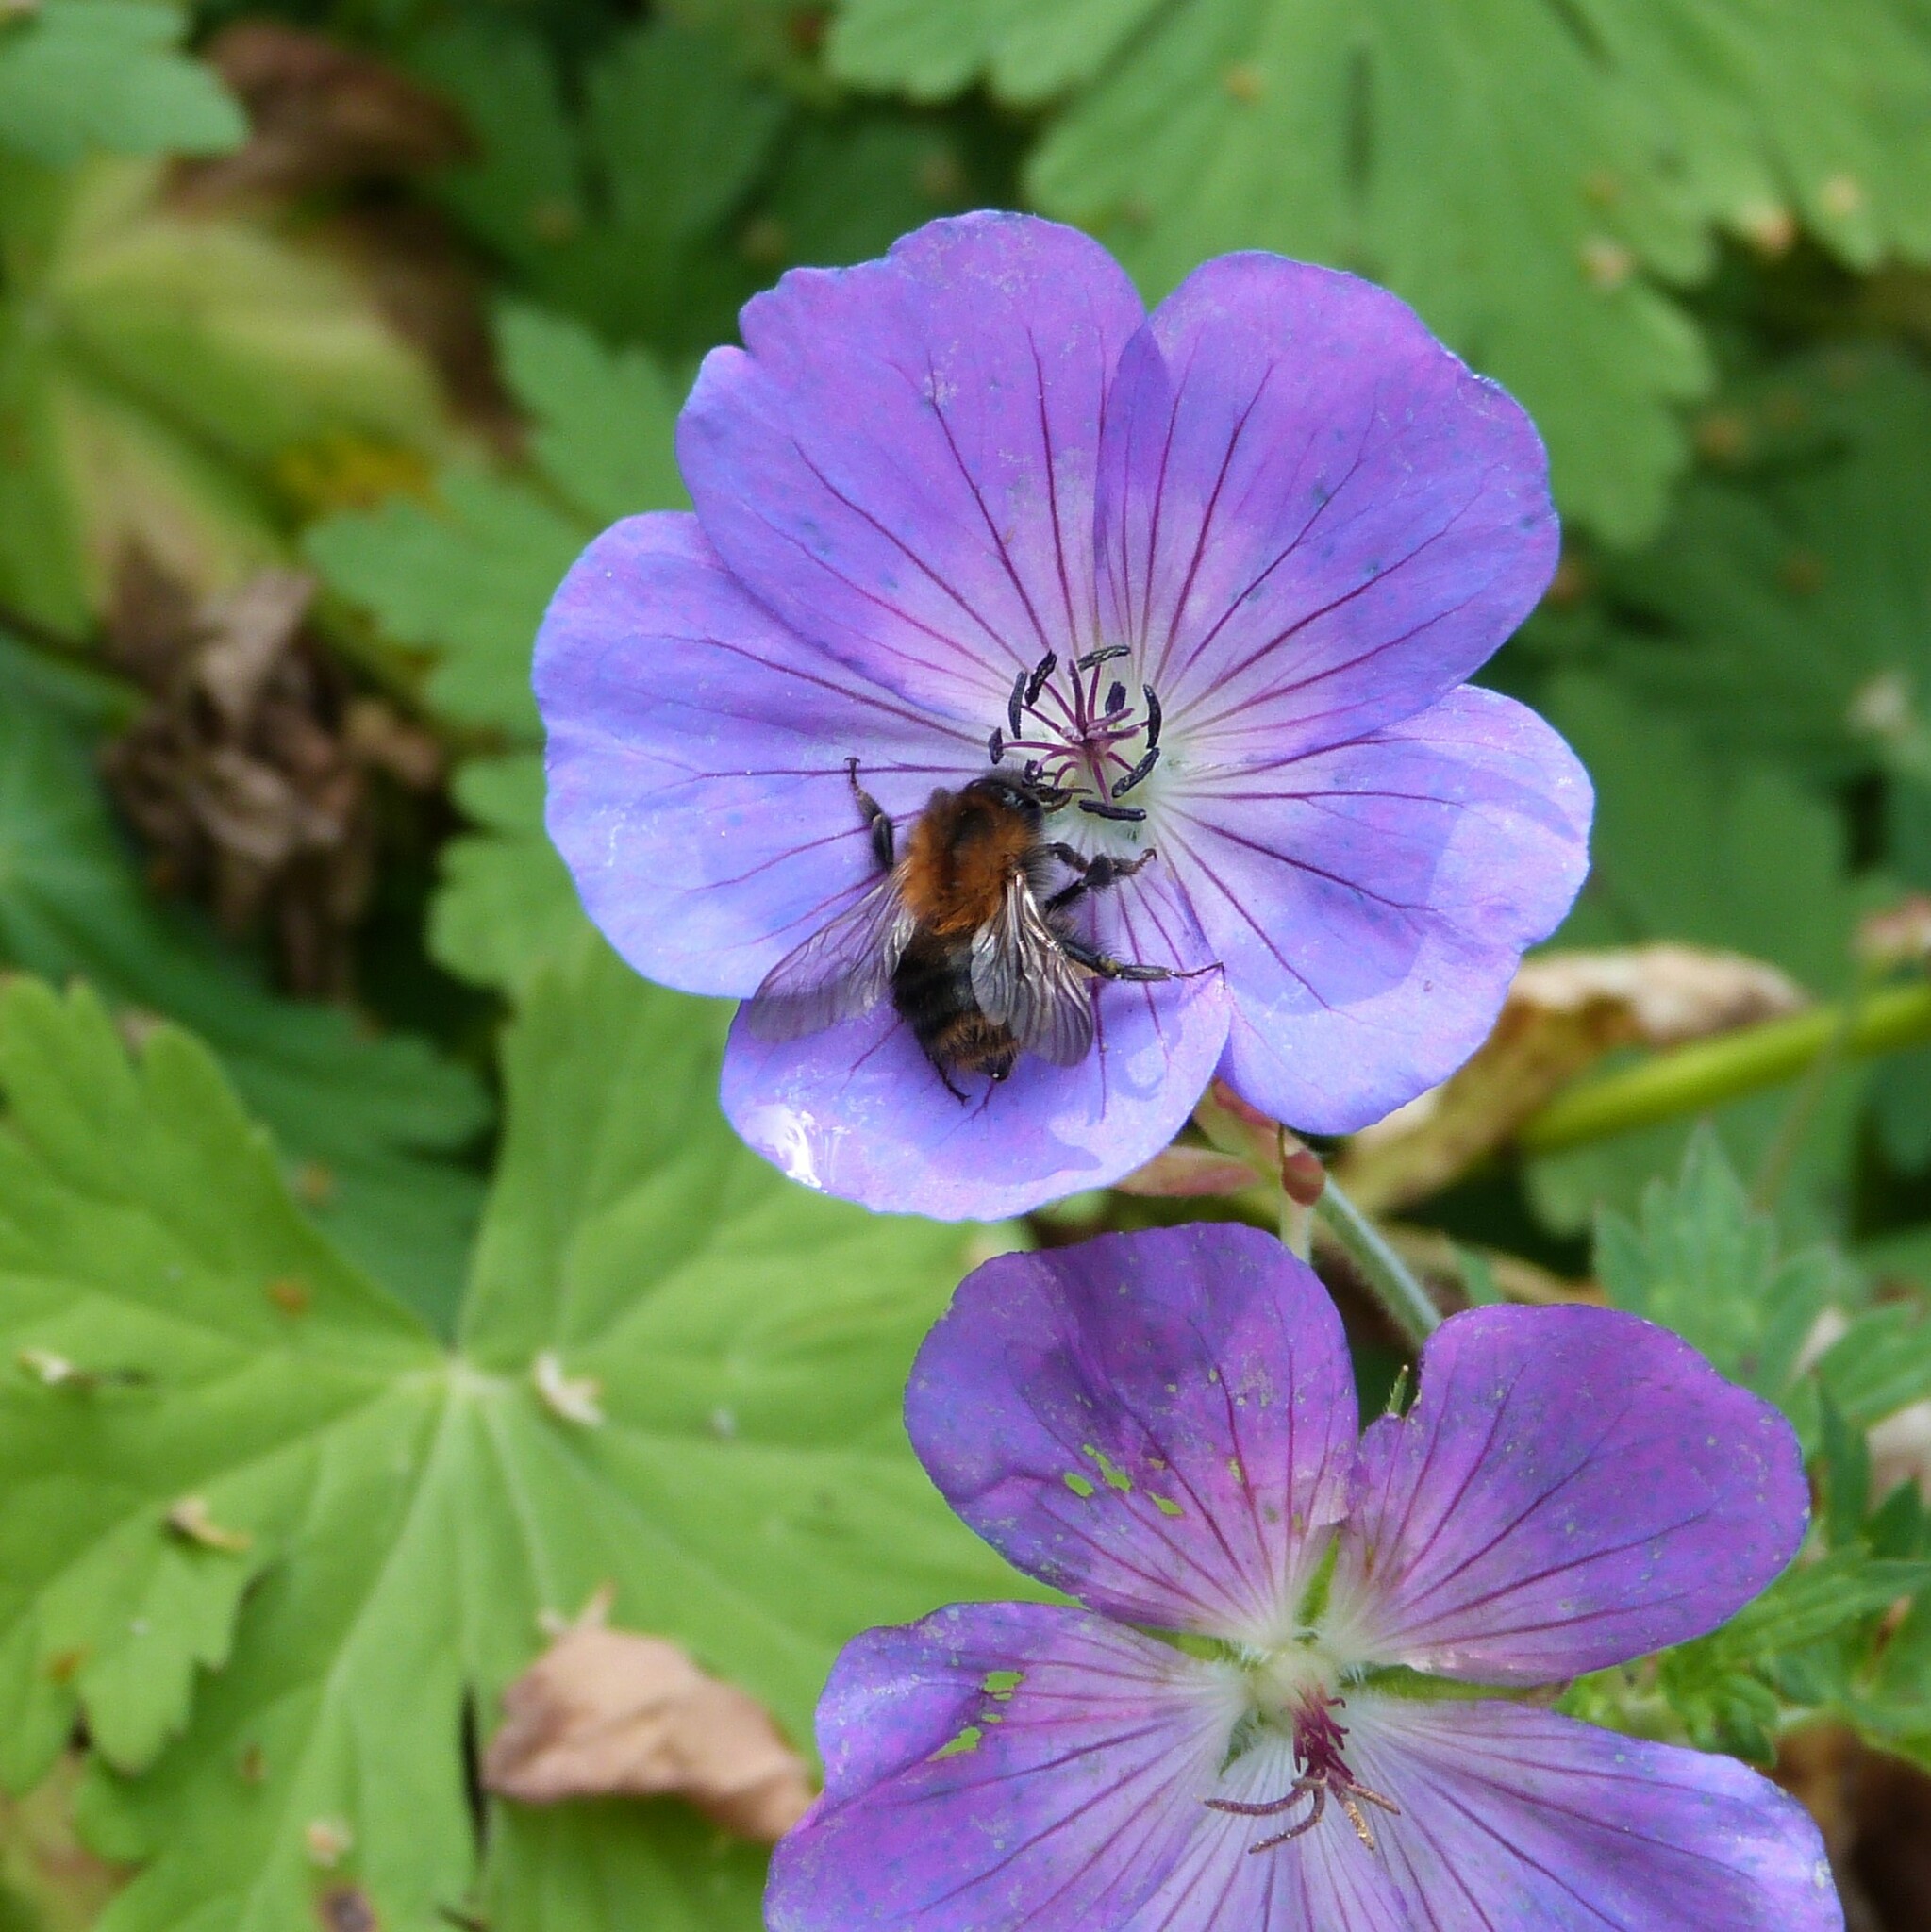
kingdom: Animalia
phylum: Arthropoda
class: Insecta
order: Hymenoptera
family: Apidae
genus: Bombus
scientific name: Bombus pascuorum
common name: Common carder bee
